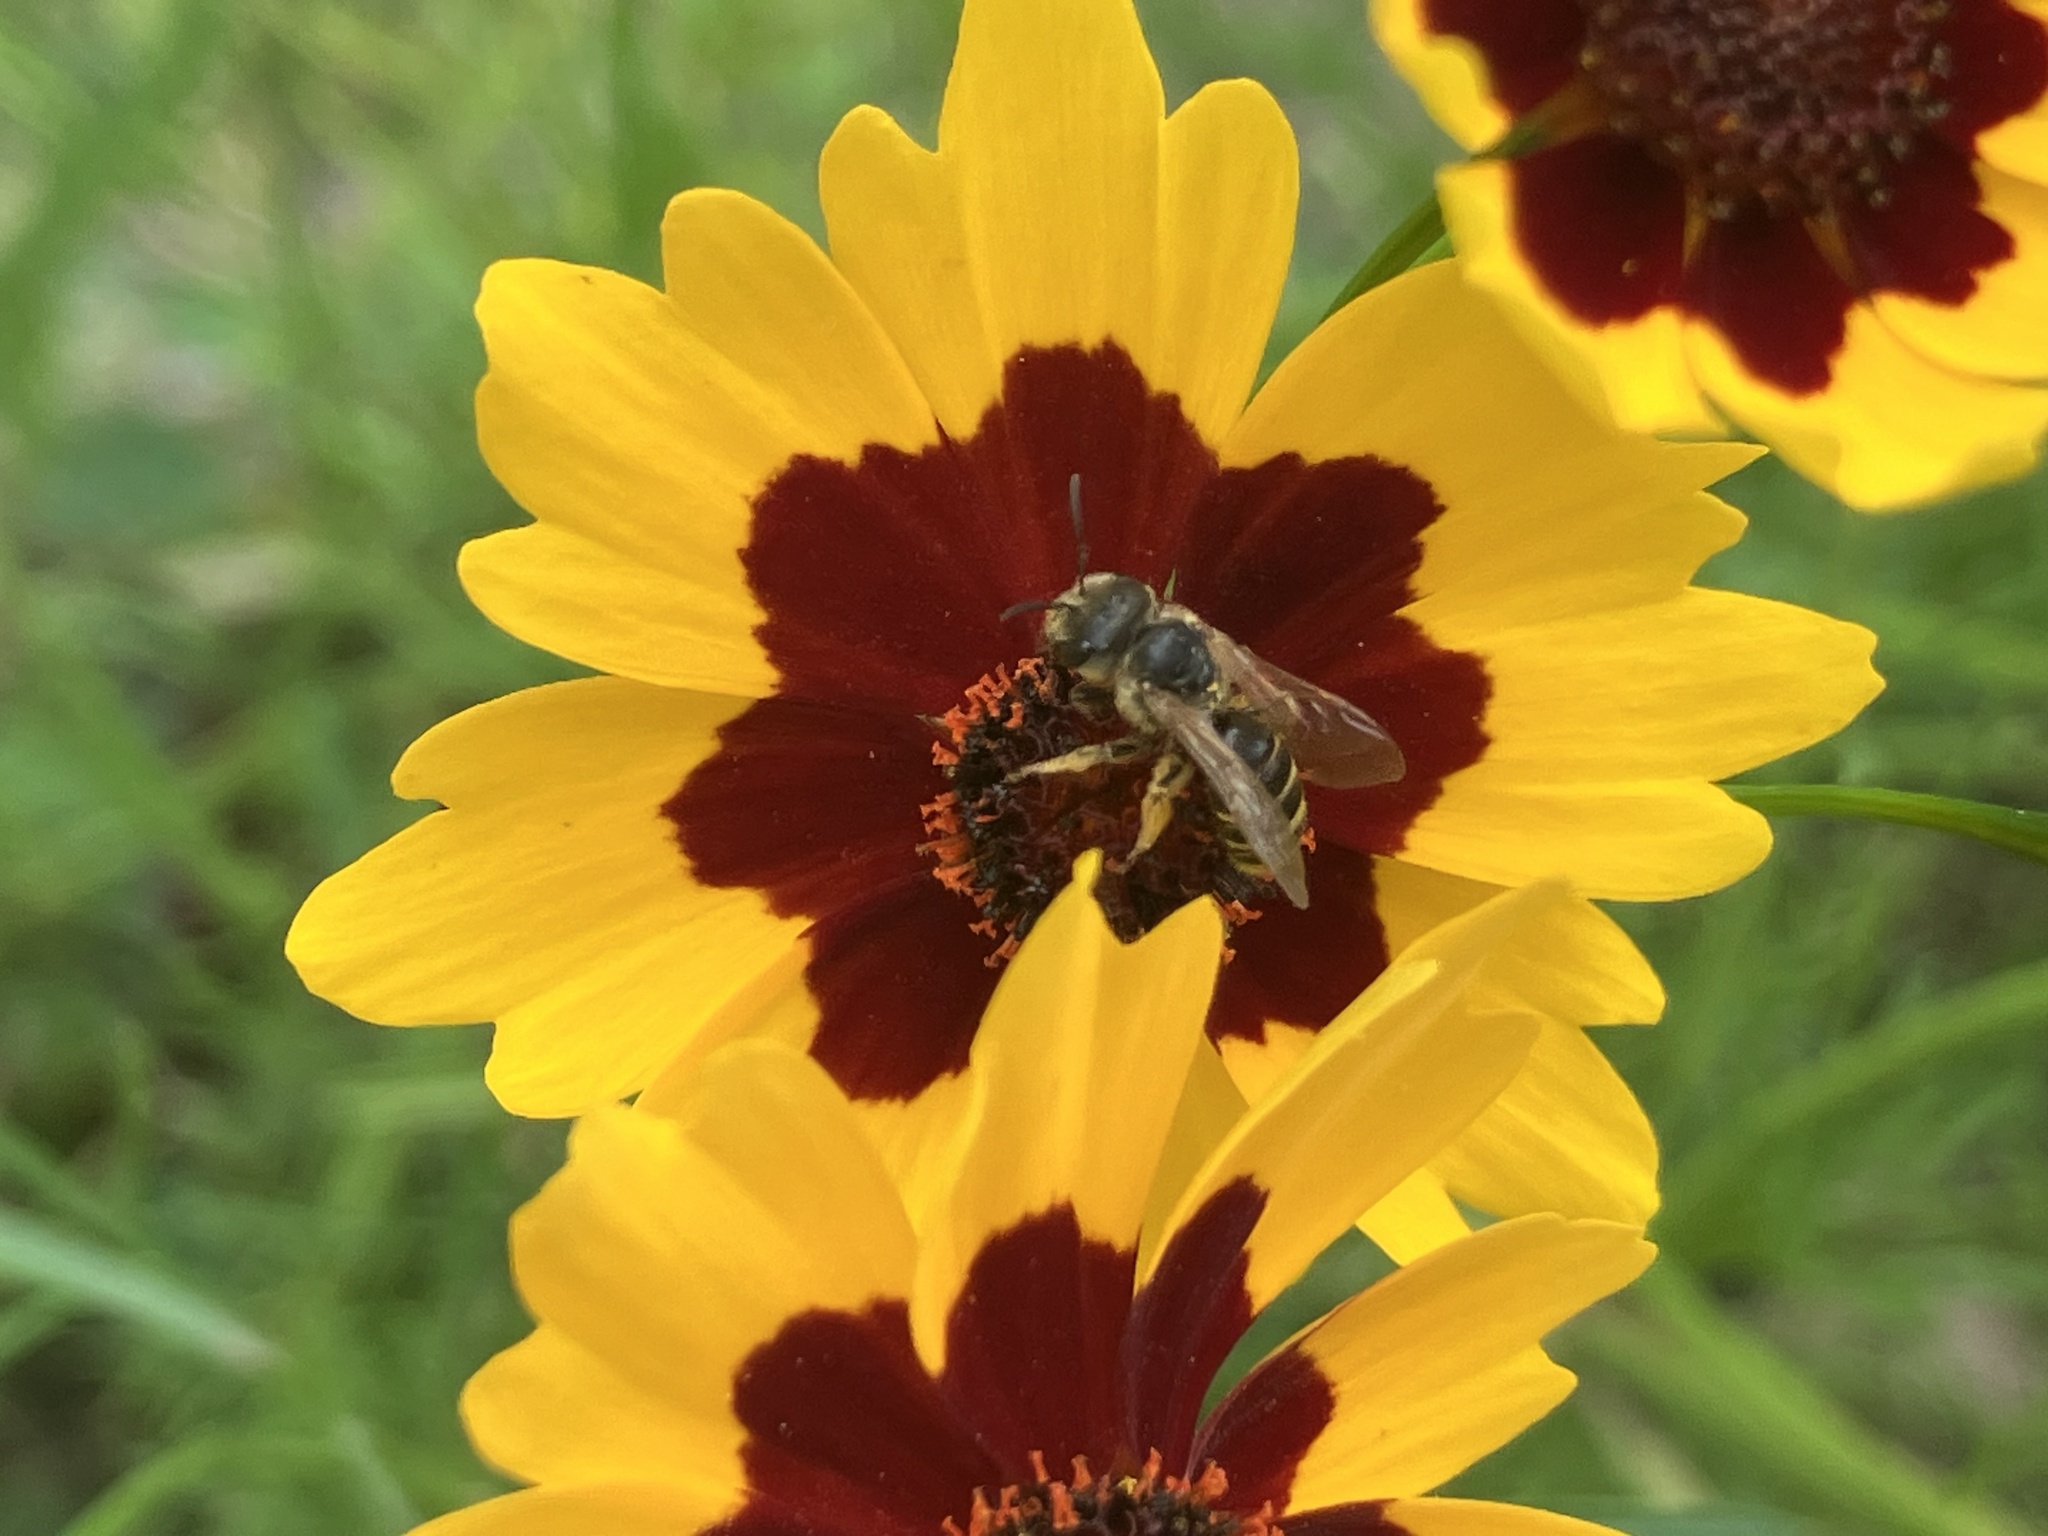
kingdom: Animalia
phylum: Arthropoda
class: Insecta
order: Hymenoptera
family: Halictidae
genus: Halictus
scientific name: Halictus ligatus
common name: Ligated furrow bee
